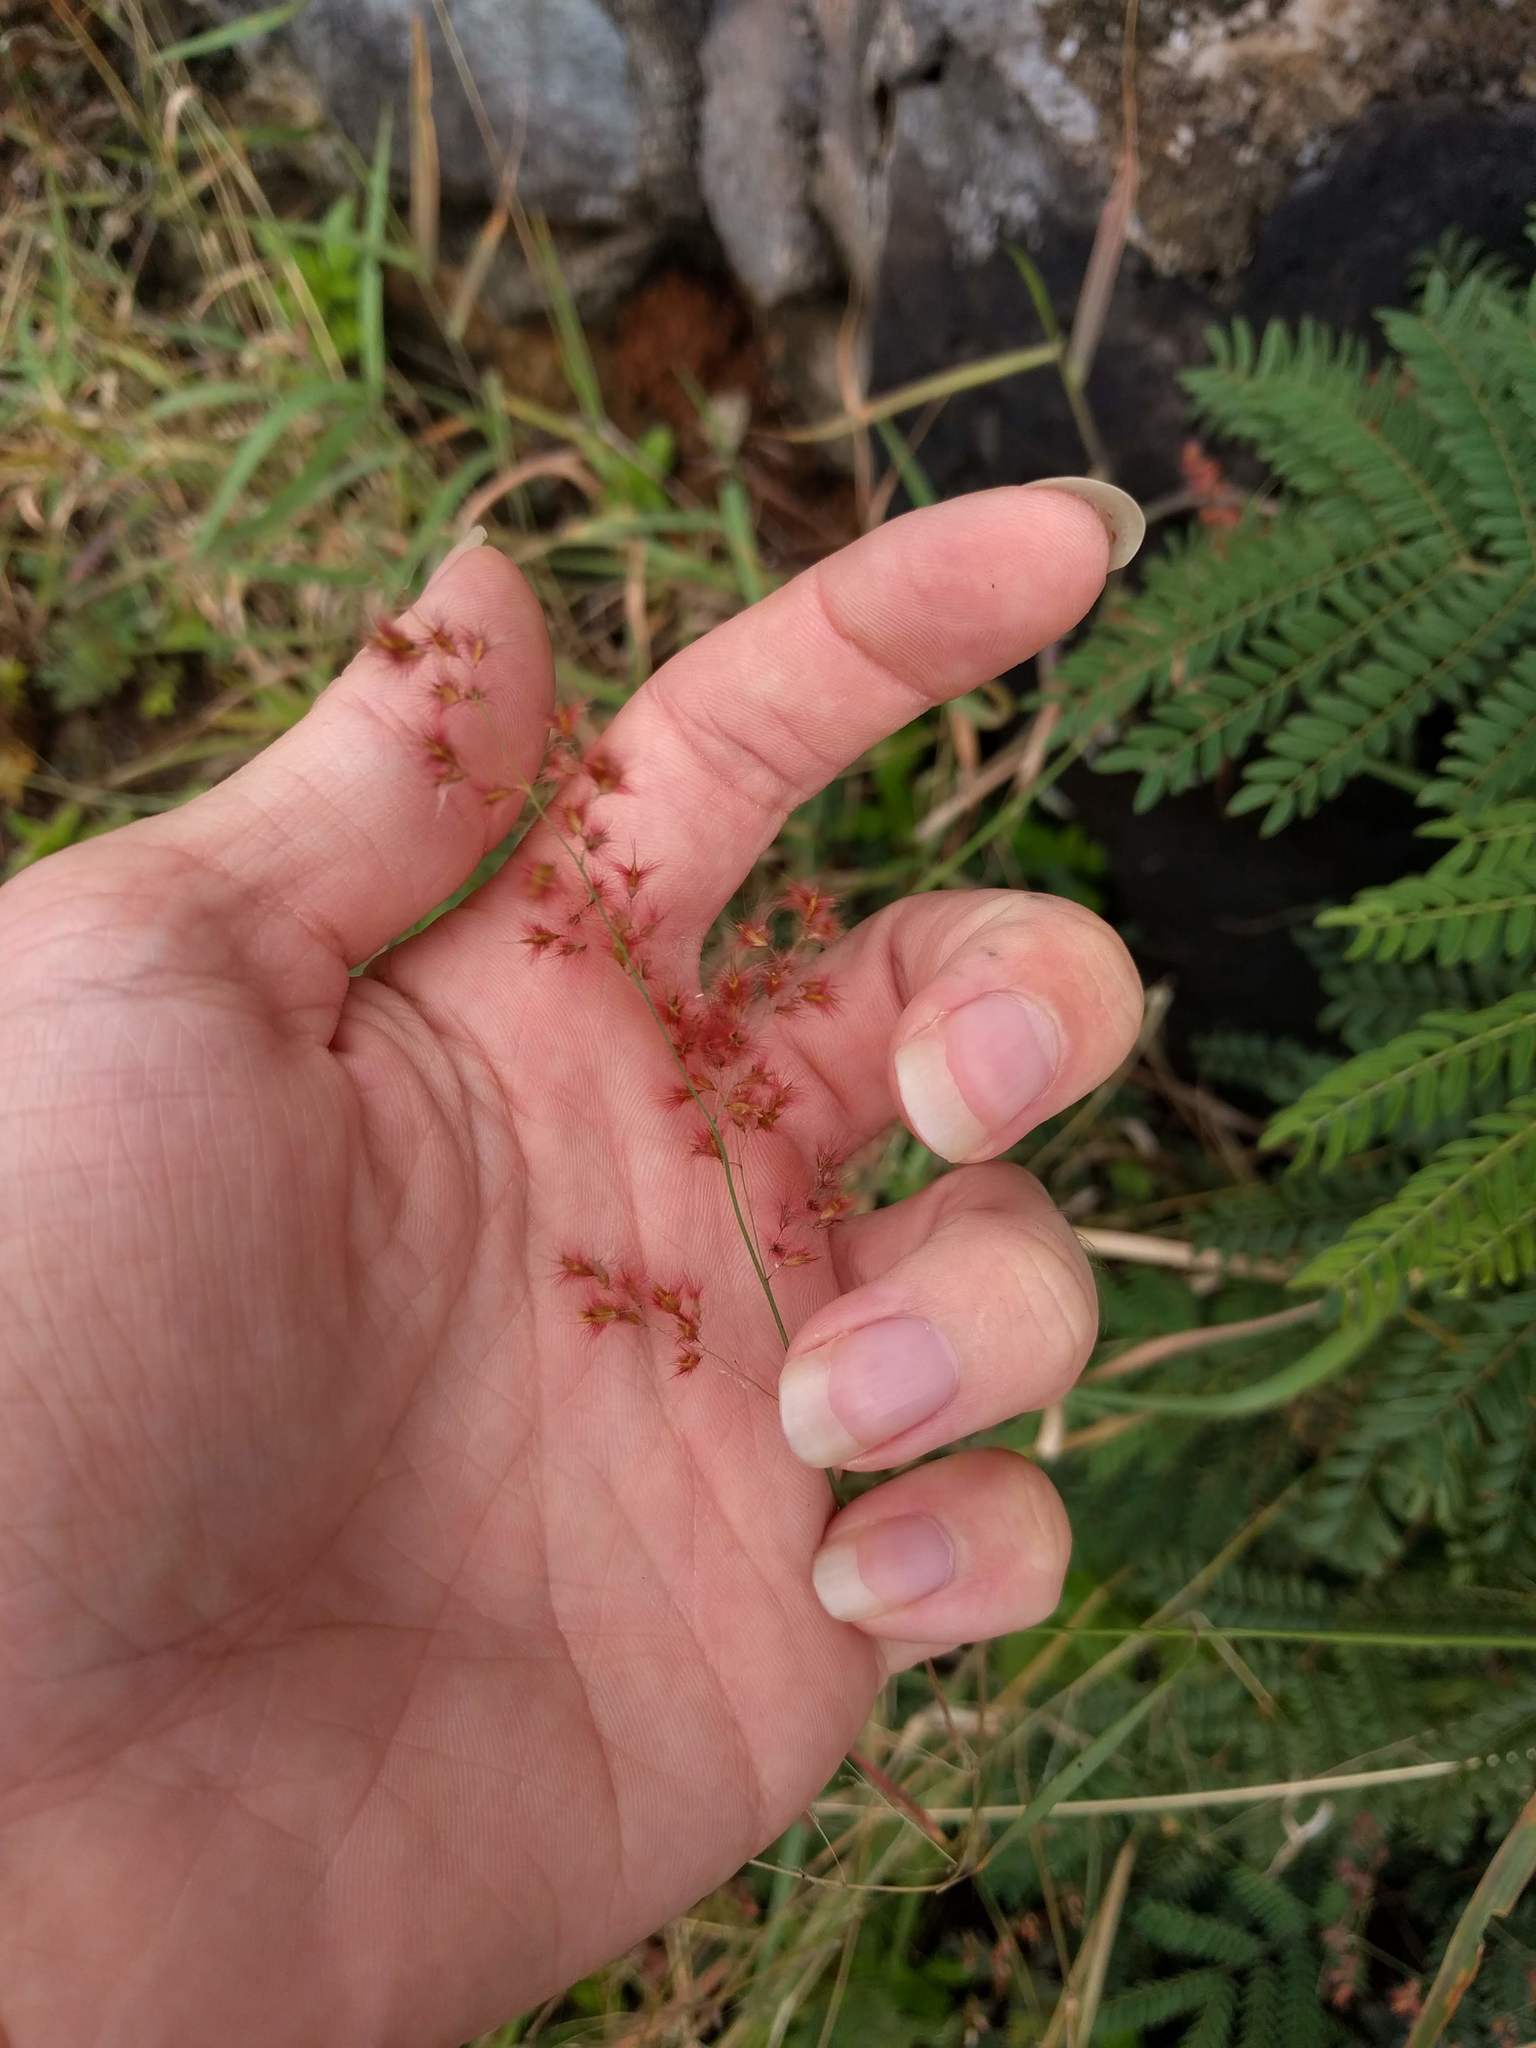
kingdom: Plantae
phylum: Tracheophyta
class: Liliopsida
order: Poales
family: Poaceae
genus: Melinis
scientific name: Melinis repens
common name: Rose natal grass
